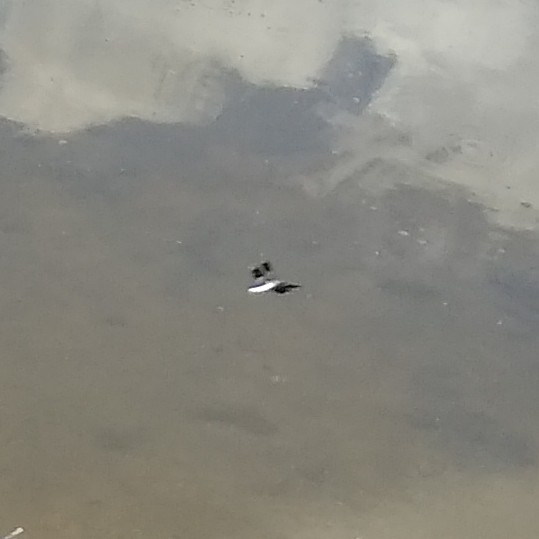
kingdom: Animalia
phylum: Arthropoda
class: Insecta
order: Odonata
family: Libellulidae
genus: Plathemis
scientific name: Plathemis lydia
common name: Common whitetail
